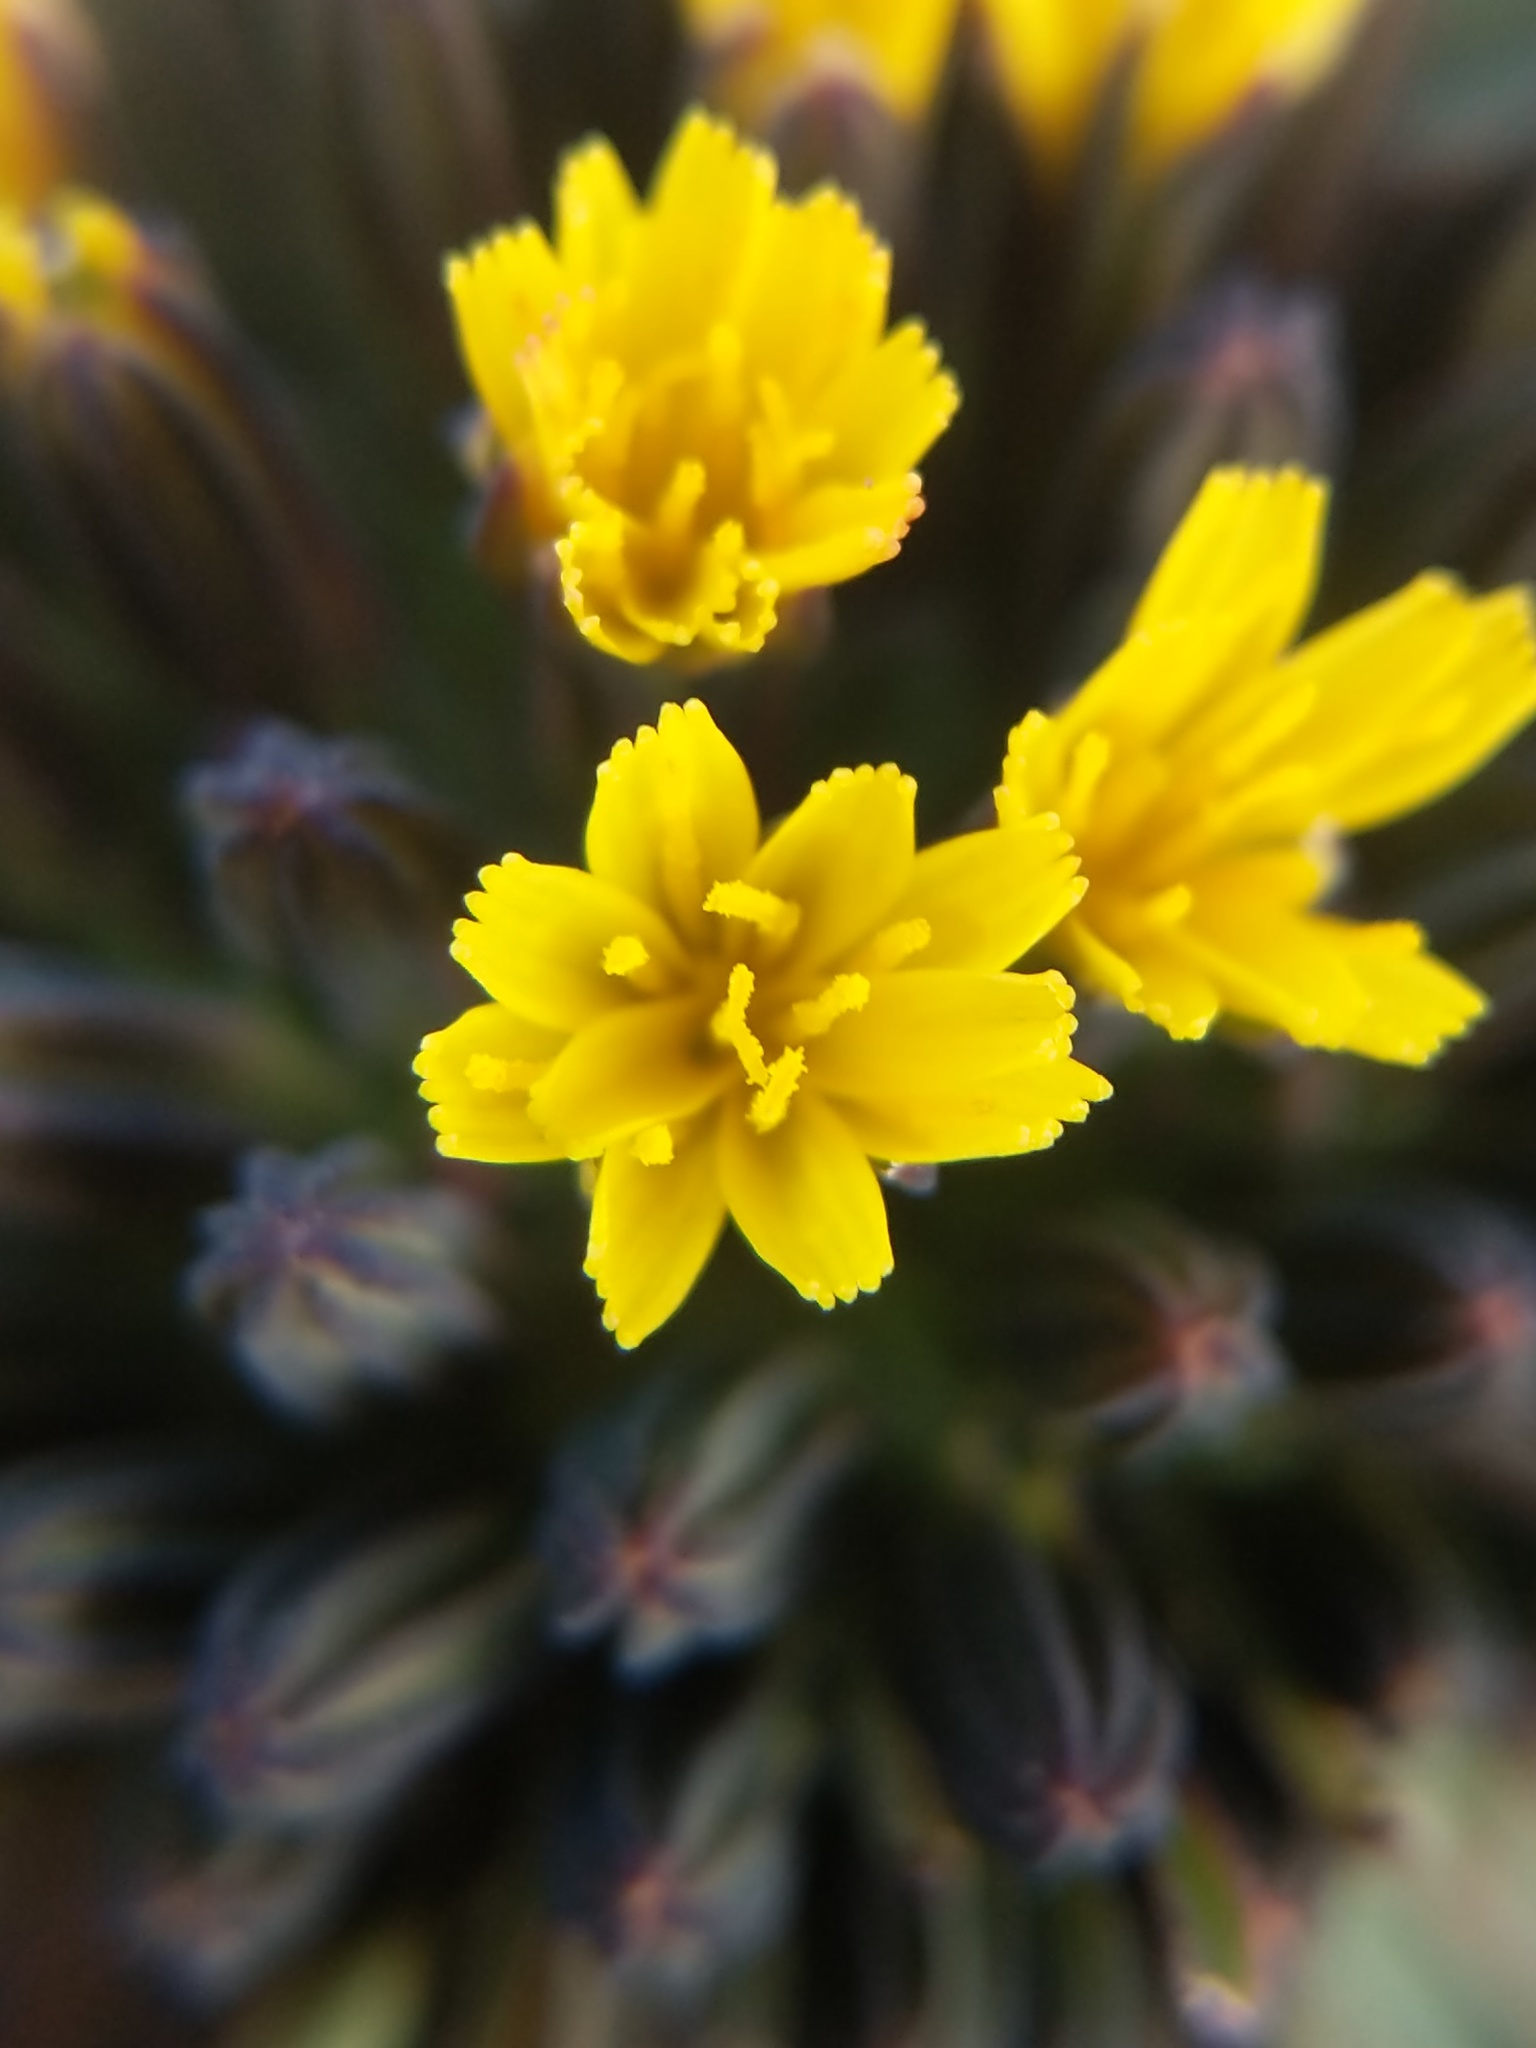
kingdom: Plantae
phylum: Tracheophyta
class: Magnoliopsida
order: Asterales
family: Asteraceae
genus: Askellia
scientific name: Askellia pygmaea
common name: Dwarf alpine hawksbeard
